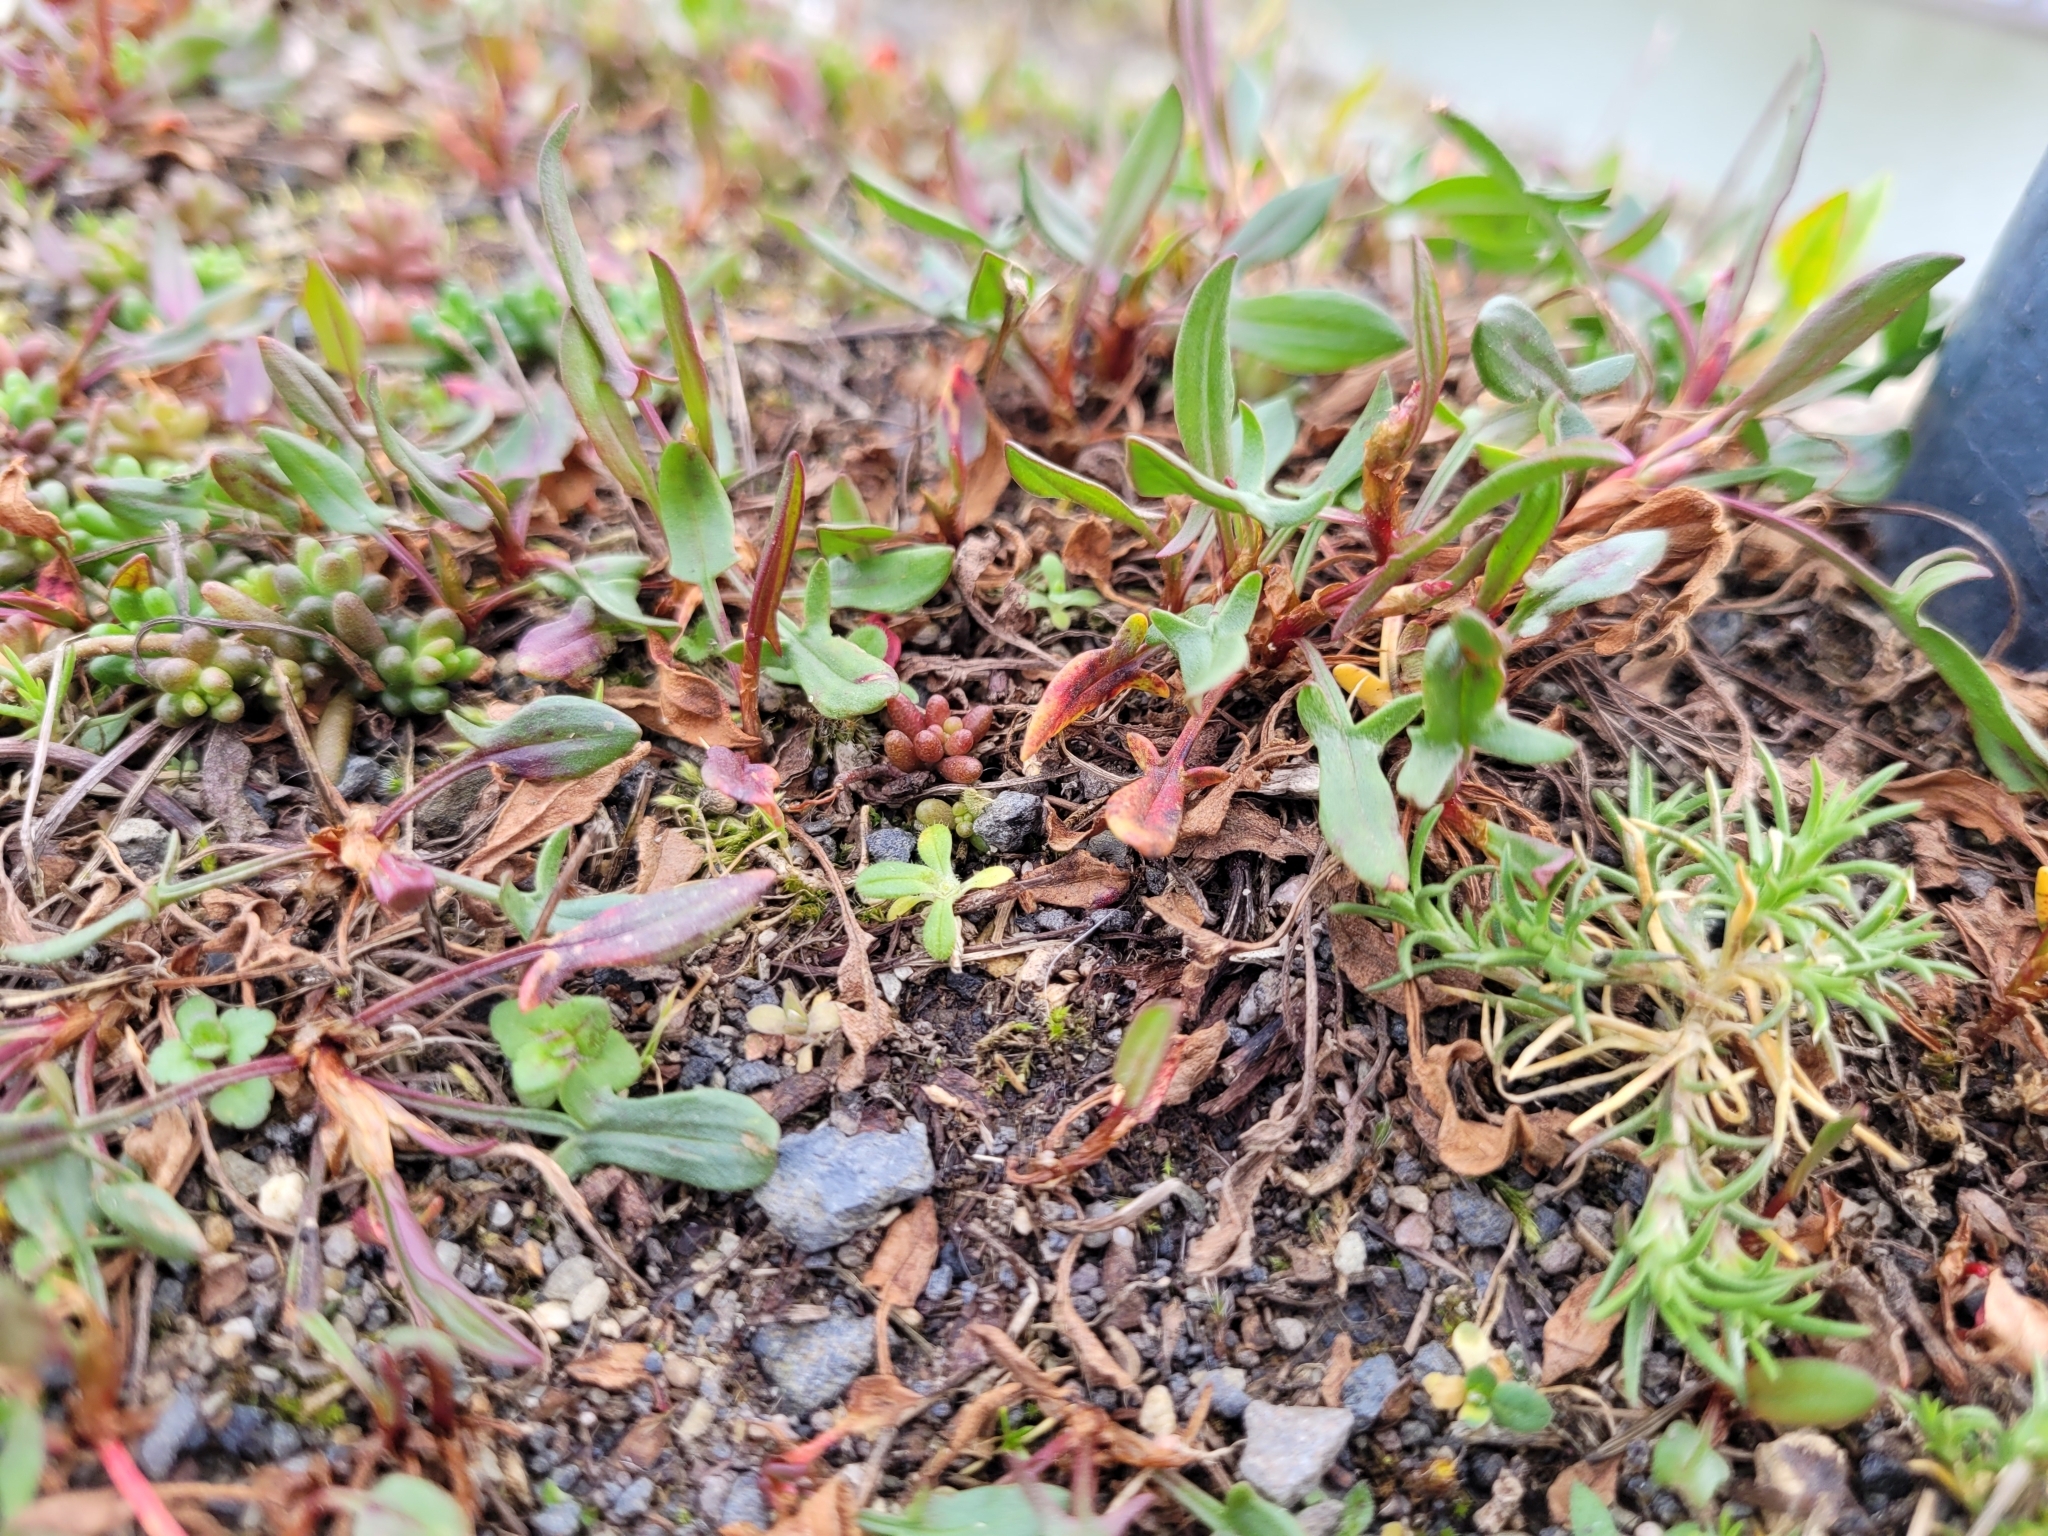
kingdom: Plantae
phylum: Tracheophyta
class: Magnoliopsida
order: Caryophyllales
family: Polygonaceae
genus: Rumex
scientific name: Rumex acetosella
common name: Common sheep sorrel
